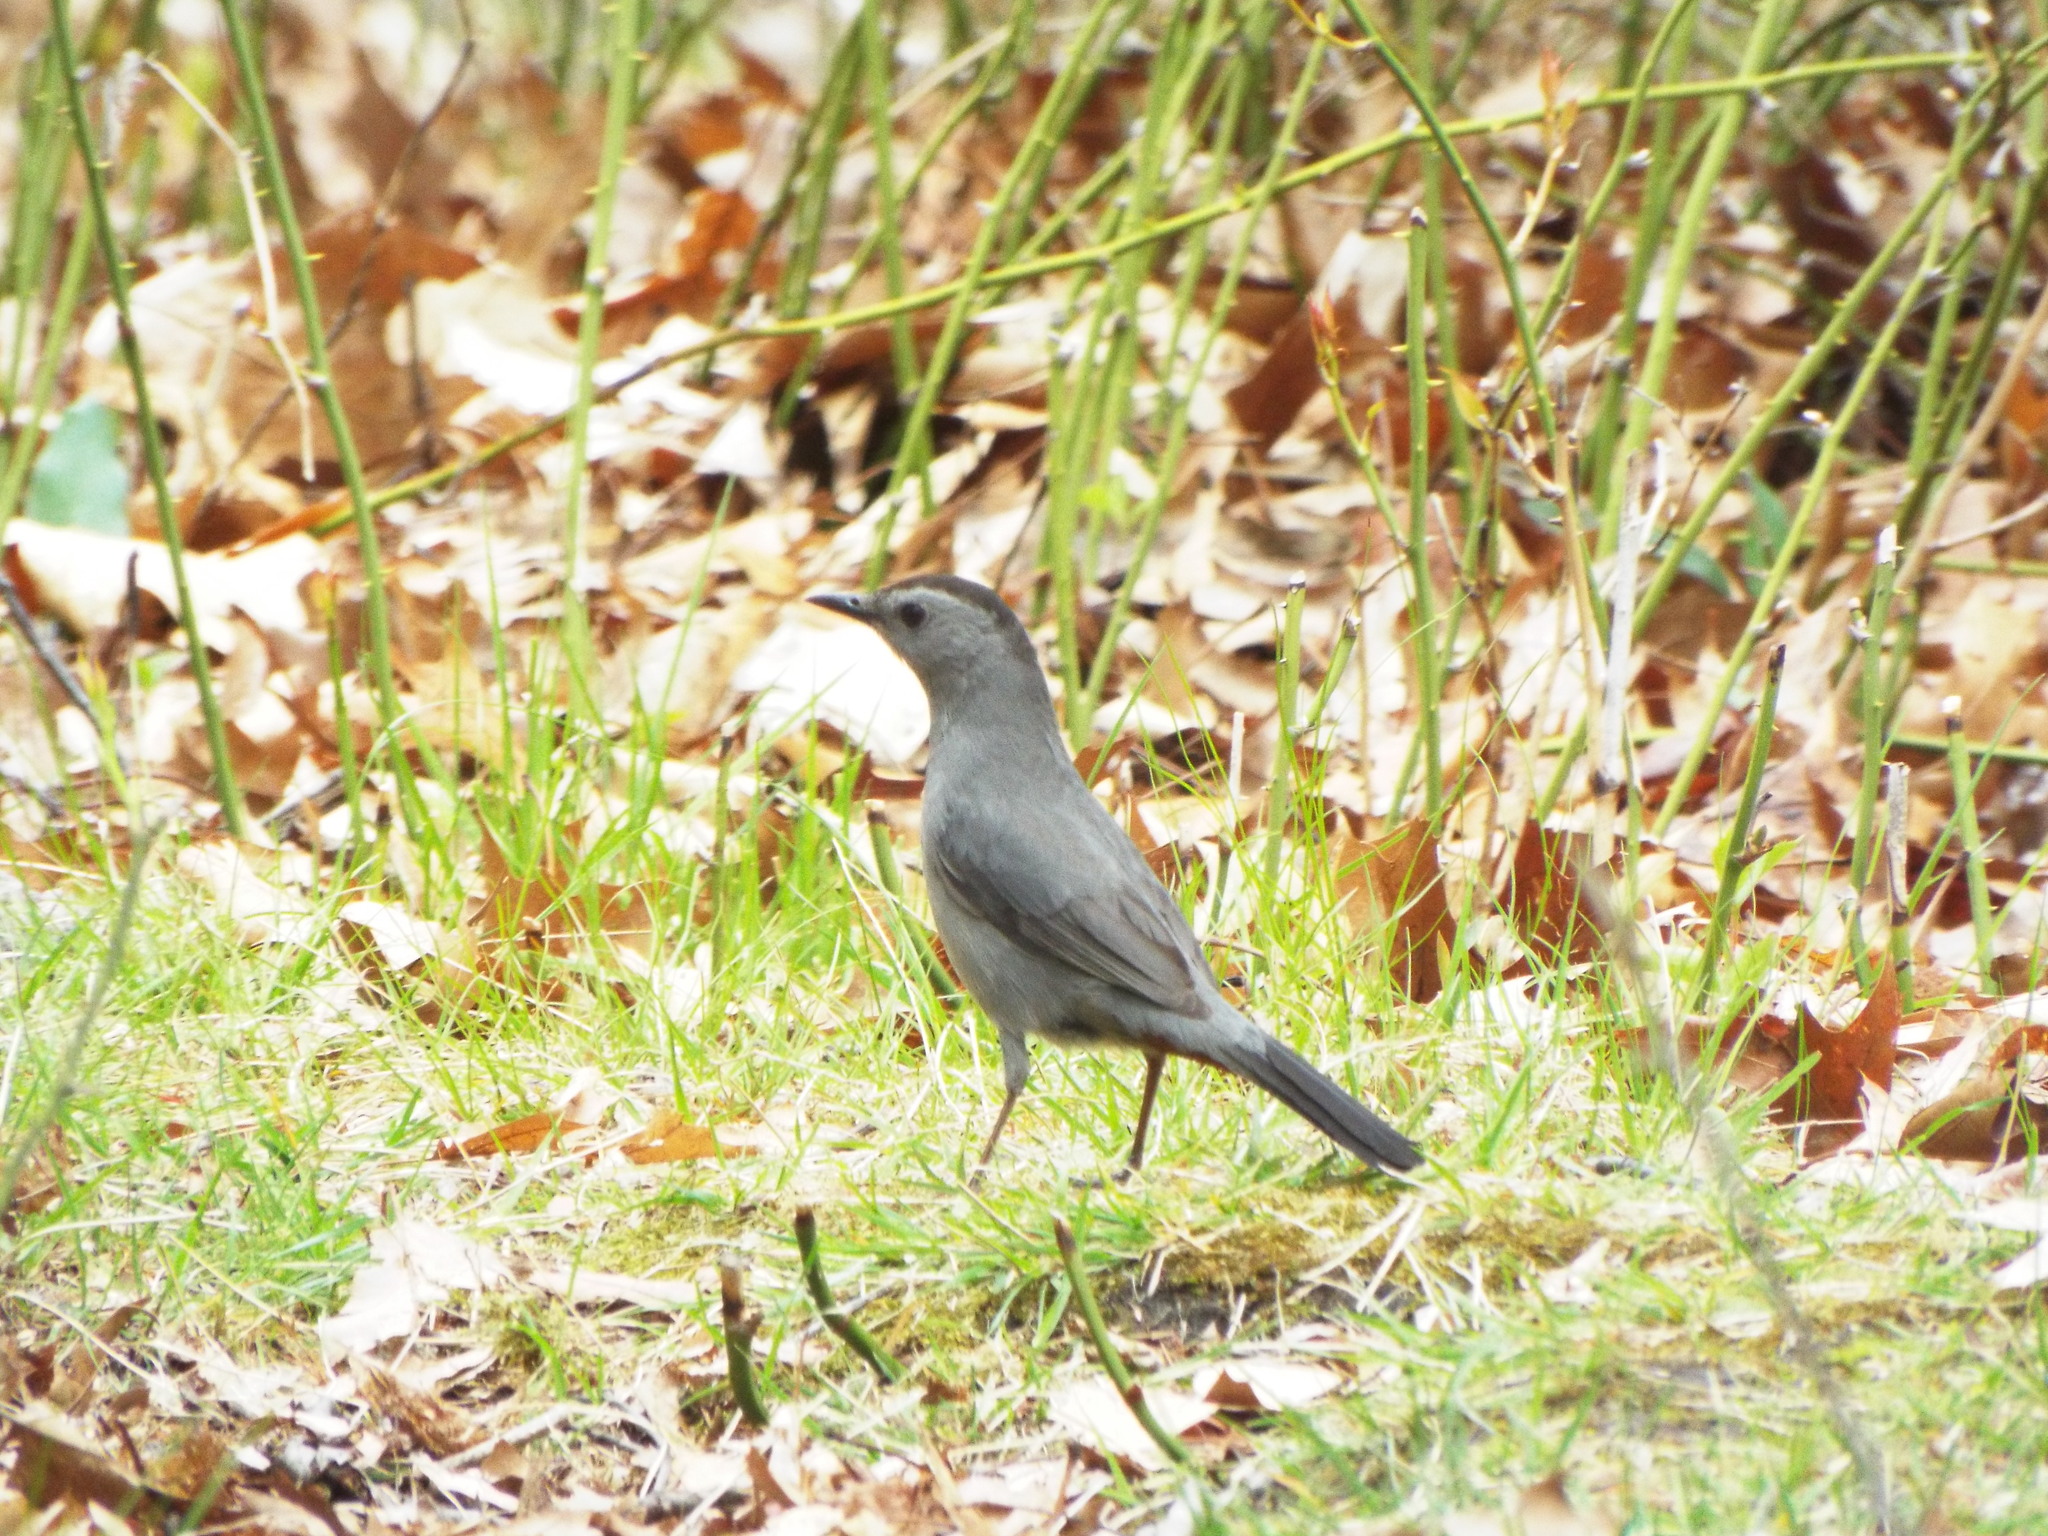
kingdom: Animalia
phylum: Chordata
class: Aves
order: Passeriformes
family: Mimidae
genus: Dumetella
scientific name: Dumetella carolinensis
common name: Gray catbird
